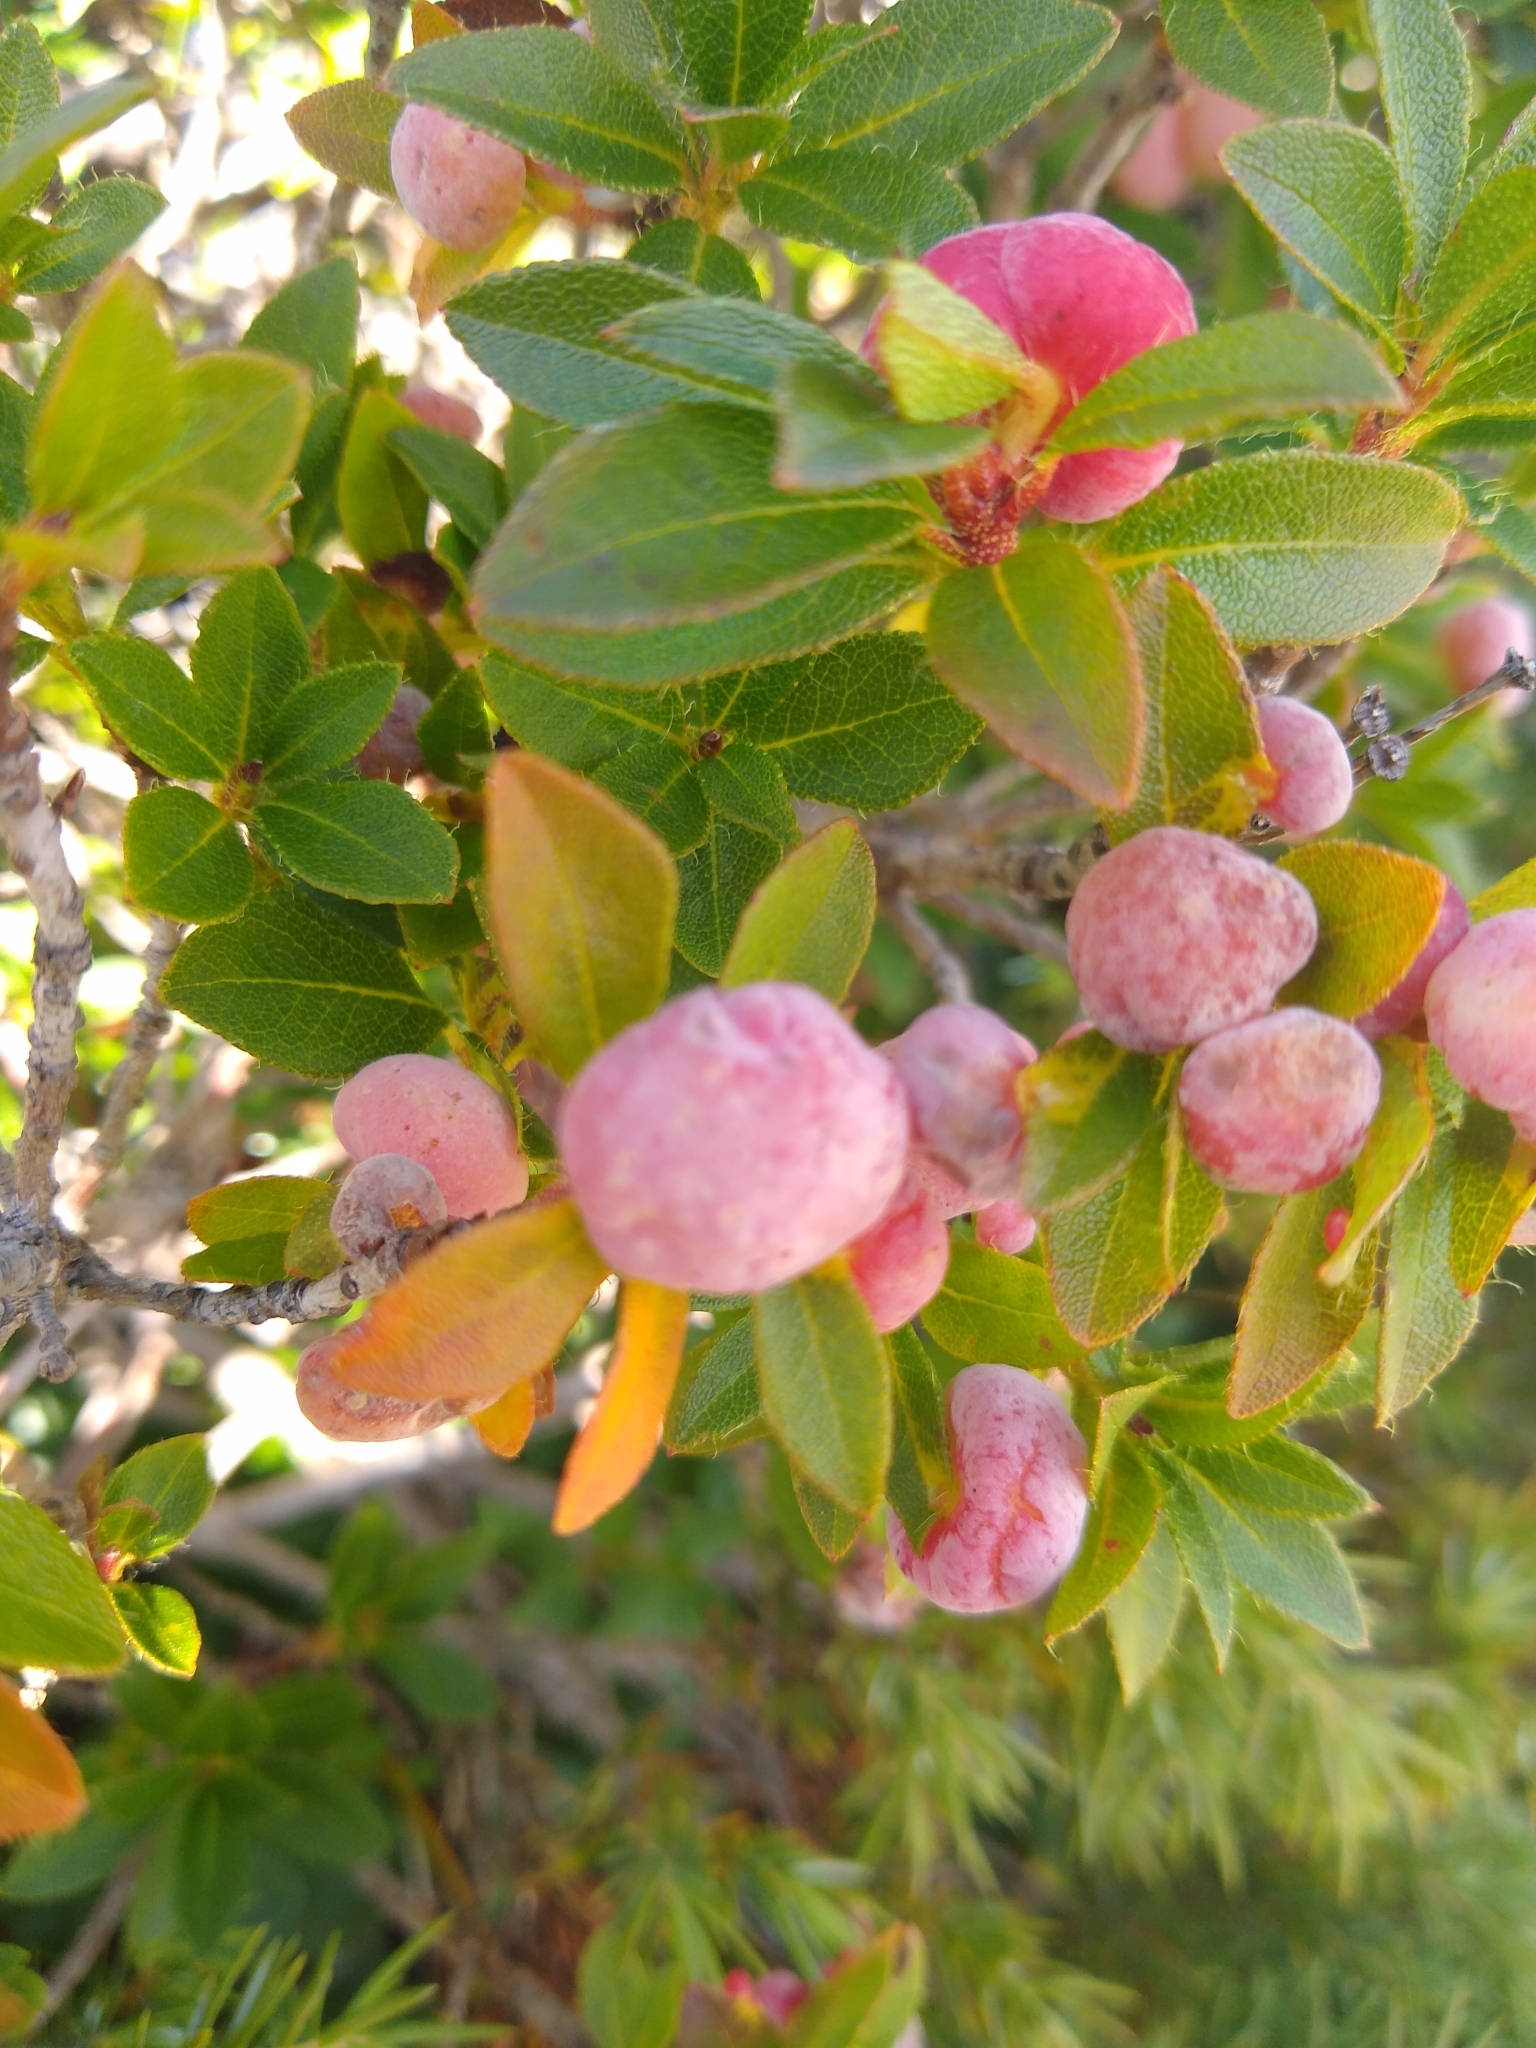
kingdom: Plantae
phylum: Tracheophyta
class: Magnoliopsida
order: Ericales
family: Ericaceae
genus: Rhododendron
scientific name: Rhododendron hirsutum
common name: Hairy alpenrose
